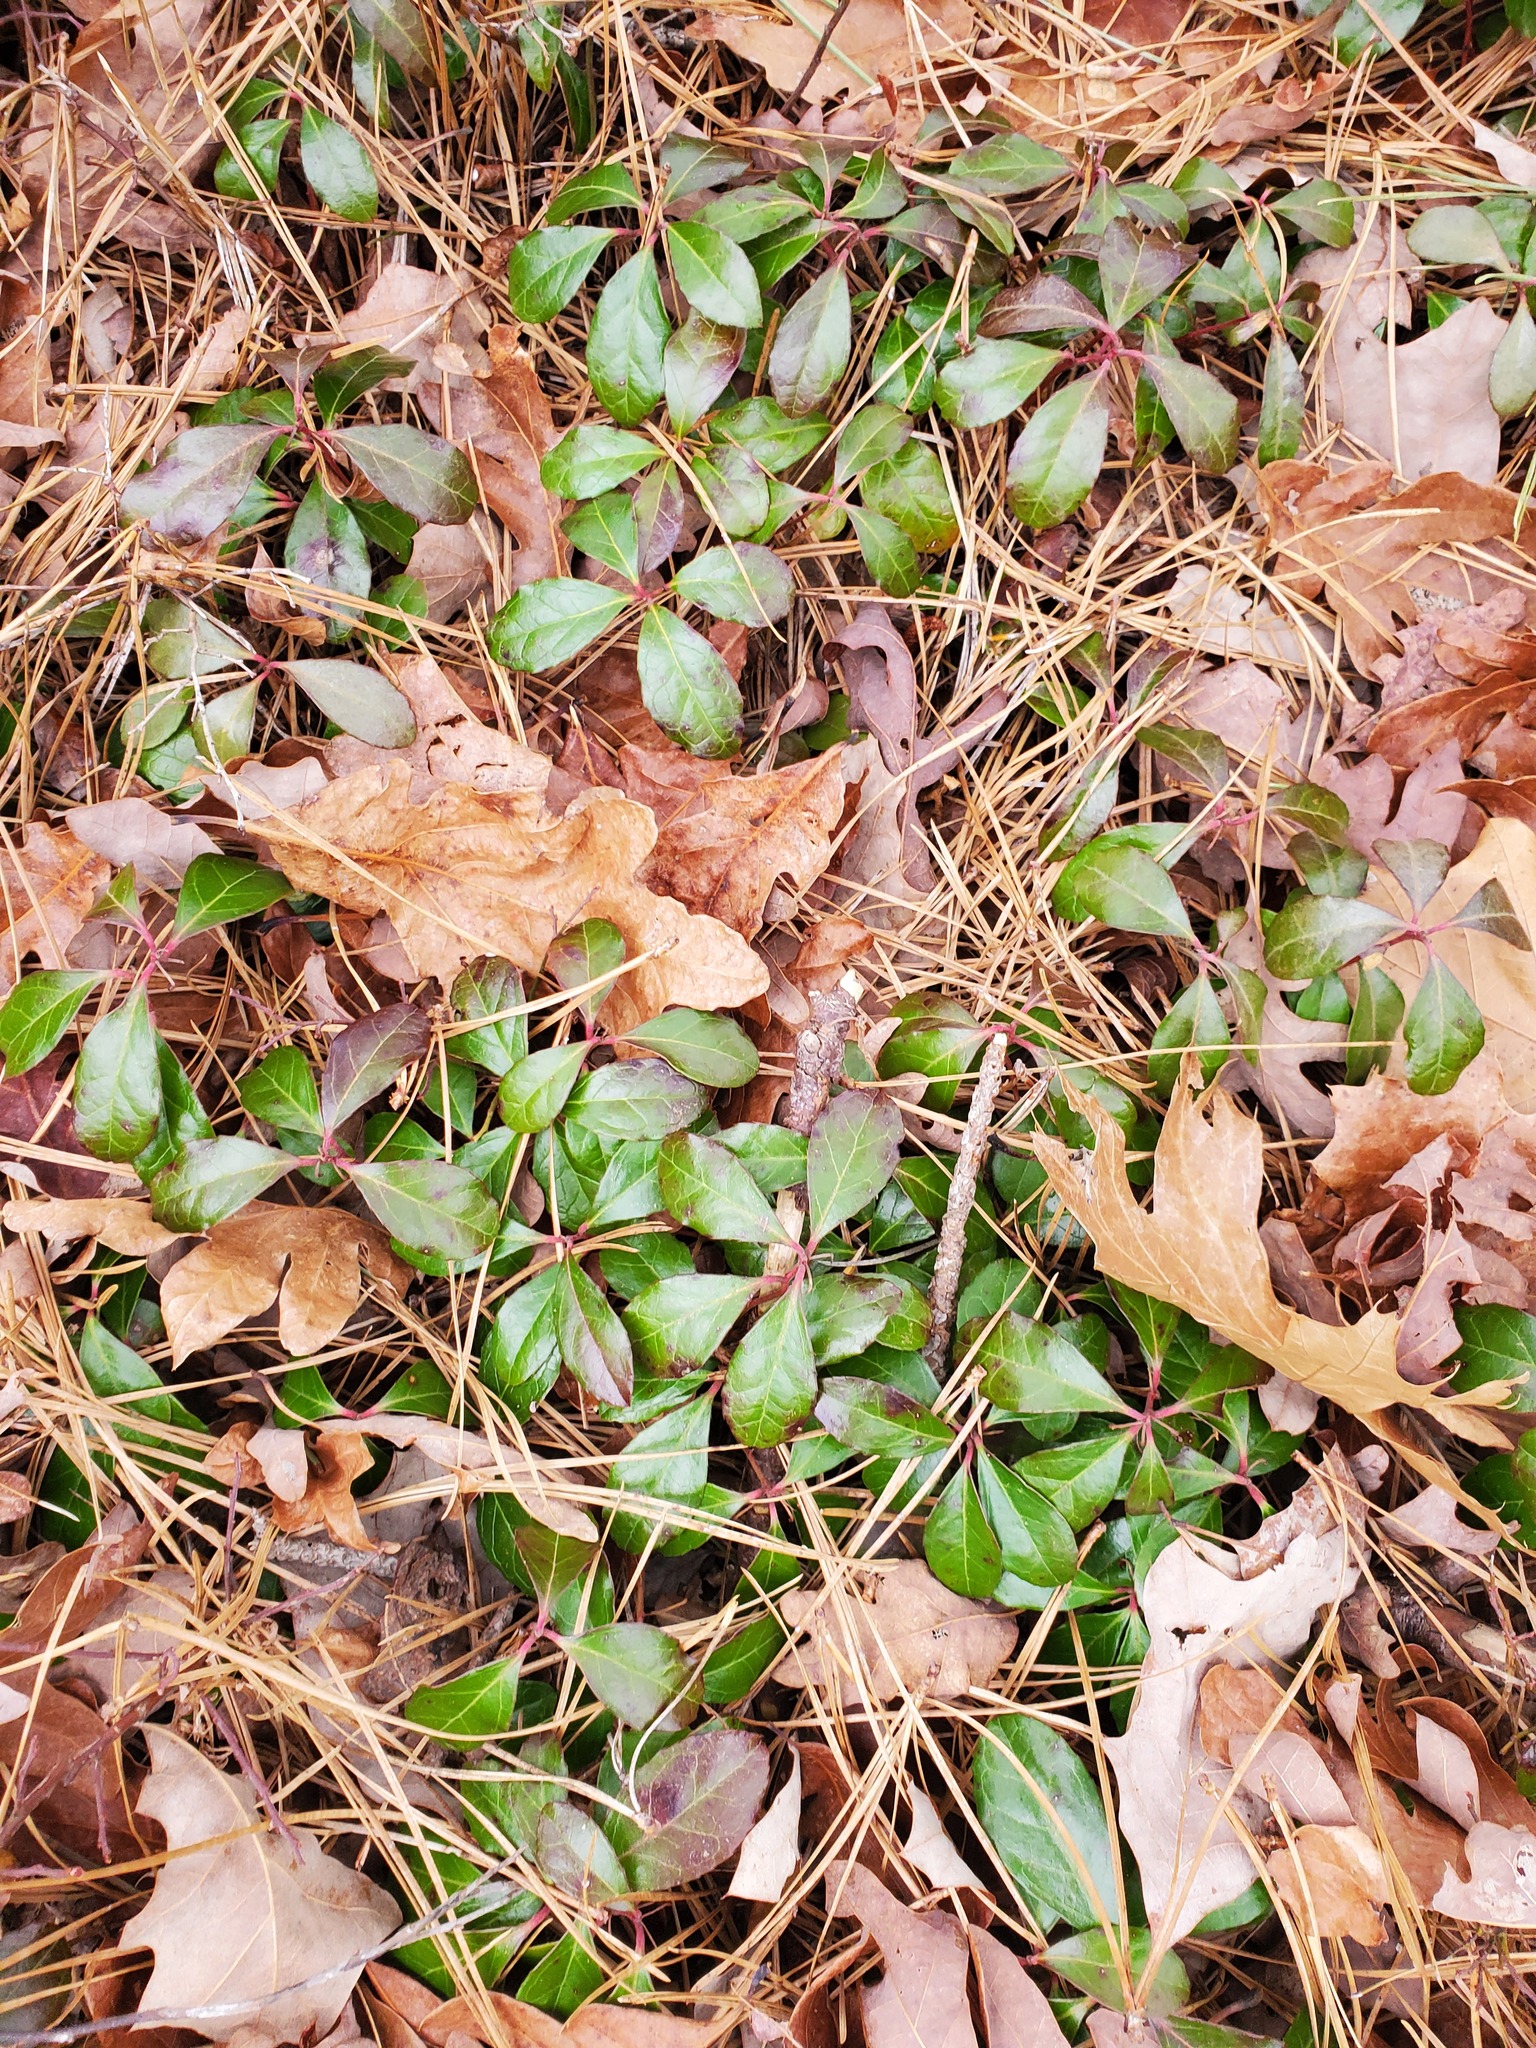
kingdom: Plantae
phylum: Tracheophyta
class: Magnoliopsida
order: Ericales
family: Ericaceae
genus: Gaultheria
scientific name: Gaultheria procumbens
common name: Checkerberry
